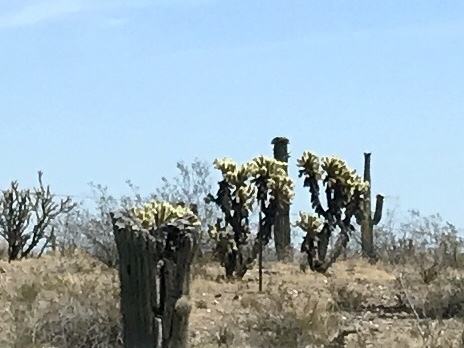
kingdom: Plantae
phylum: Tracheophyta
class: Magnoliopsida
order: Caryophyllales
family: Cactaceae
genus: Cylindropuntia
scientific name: Cylindropuntia fosbergii
